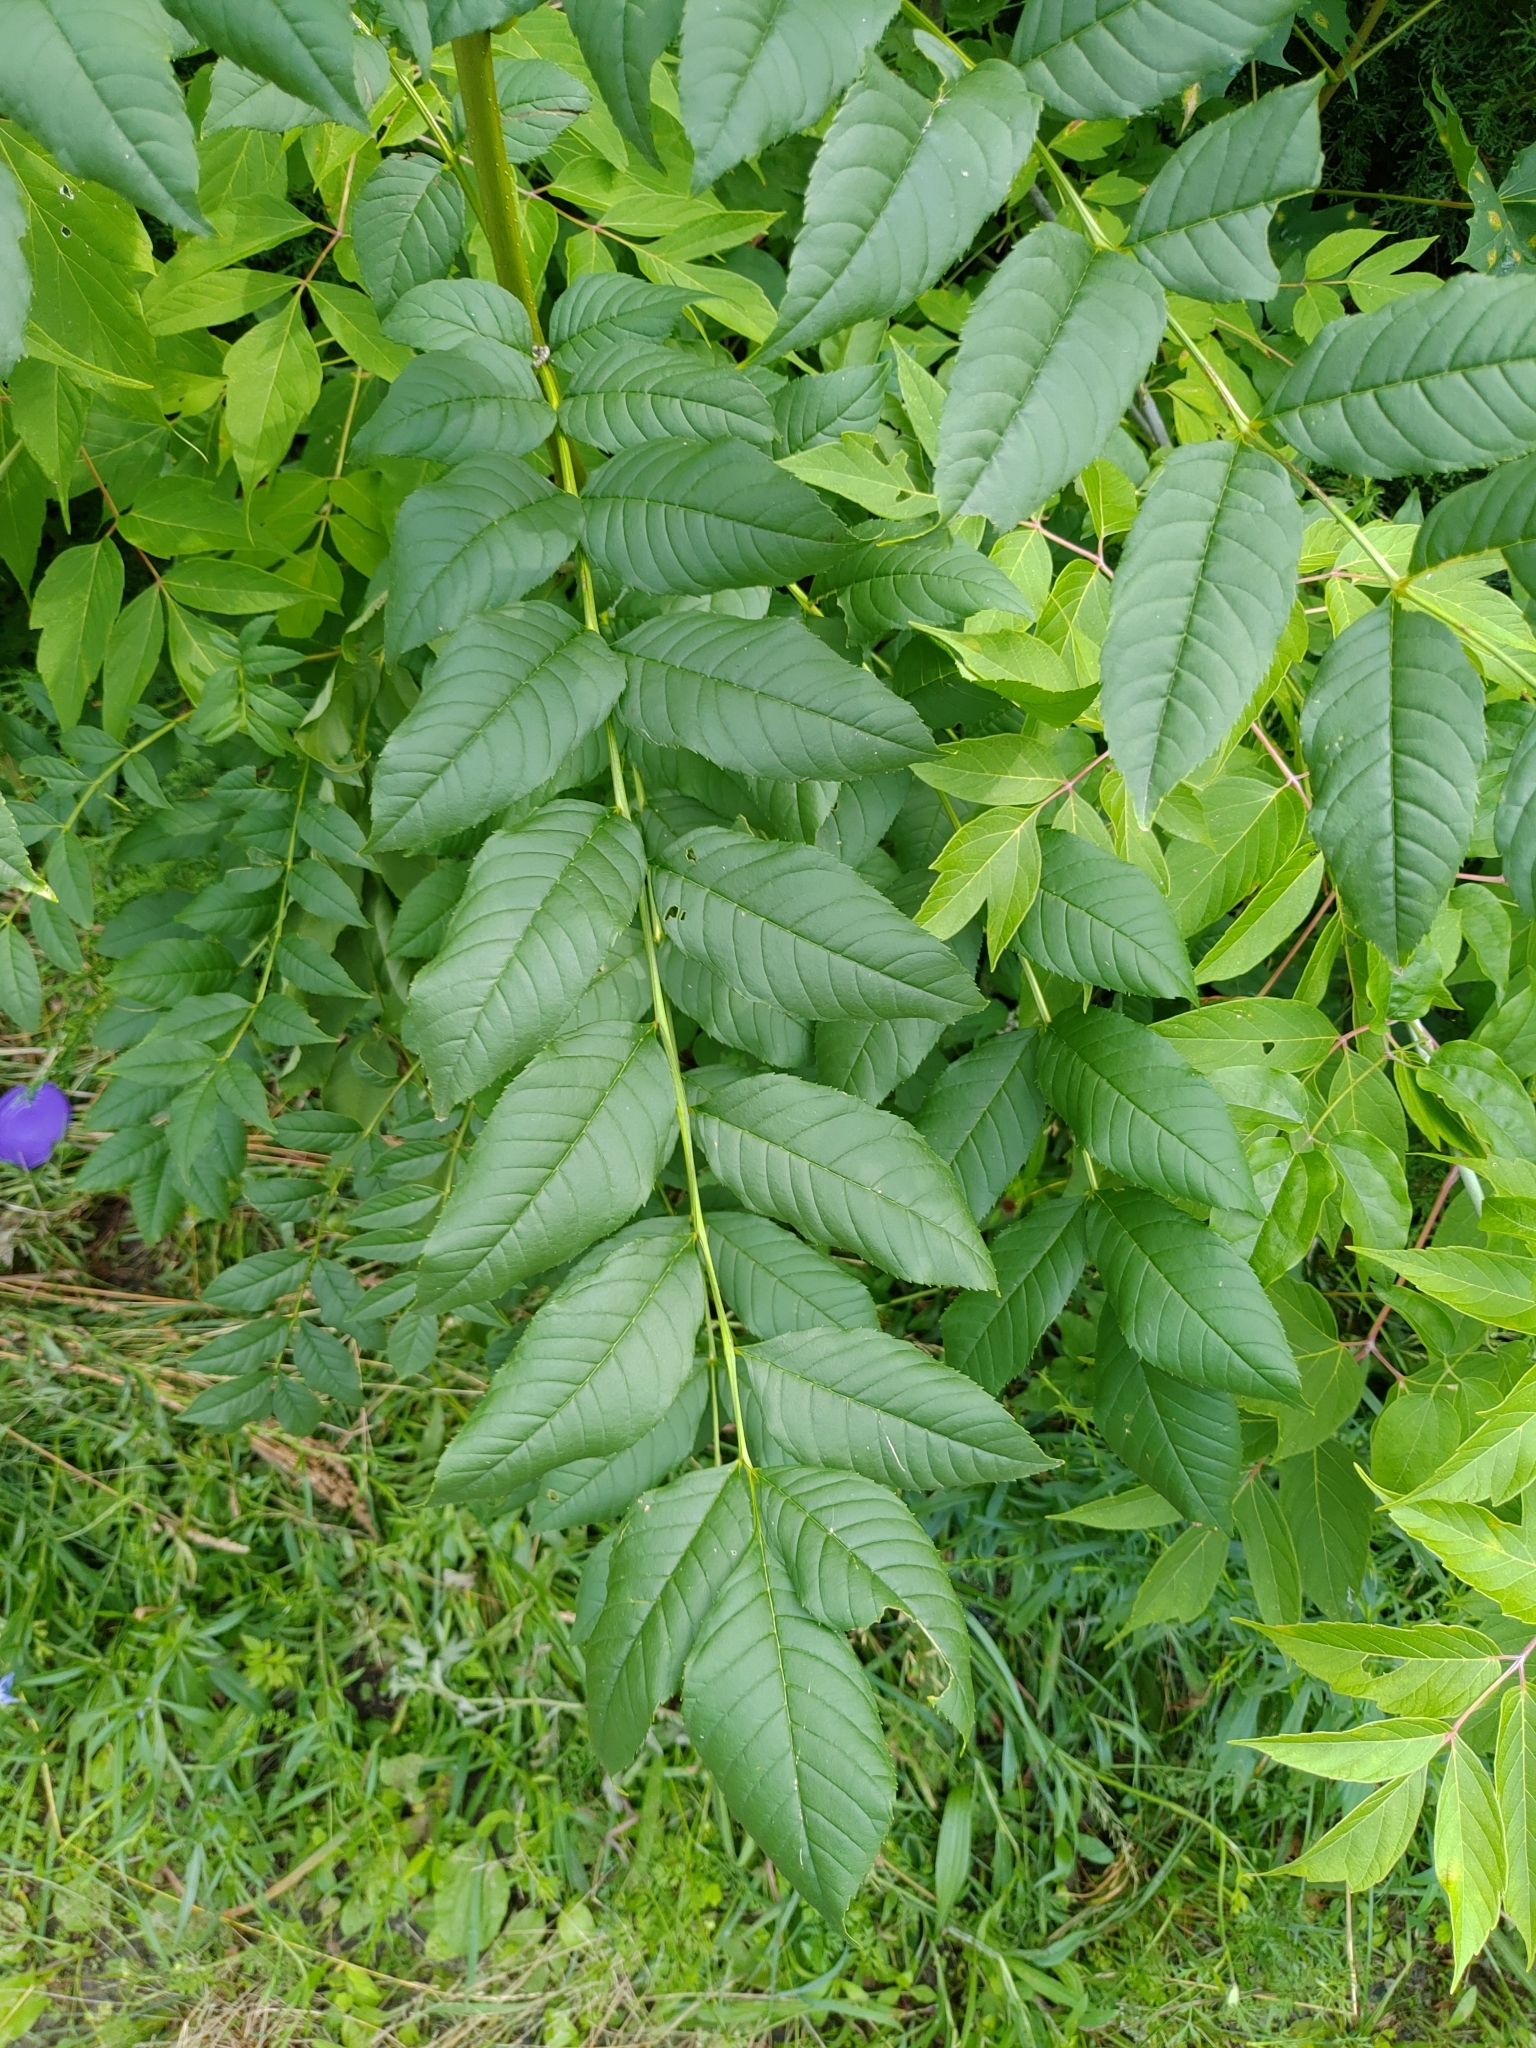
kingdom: Plantae
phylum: Tracheophyta
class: Magnoliopsida
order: Lamiales
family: Oleaceae
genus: Fraxinus
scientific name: Fraxinus excelsior
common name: European ash
